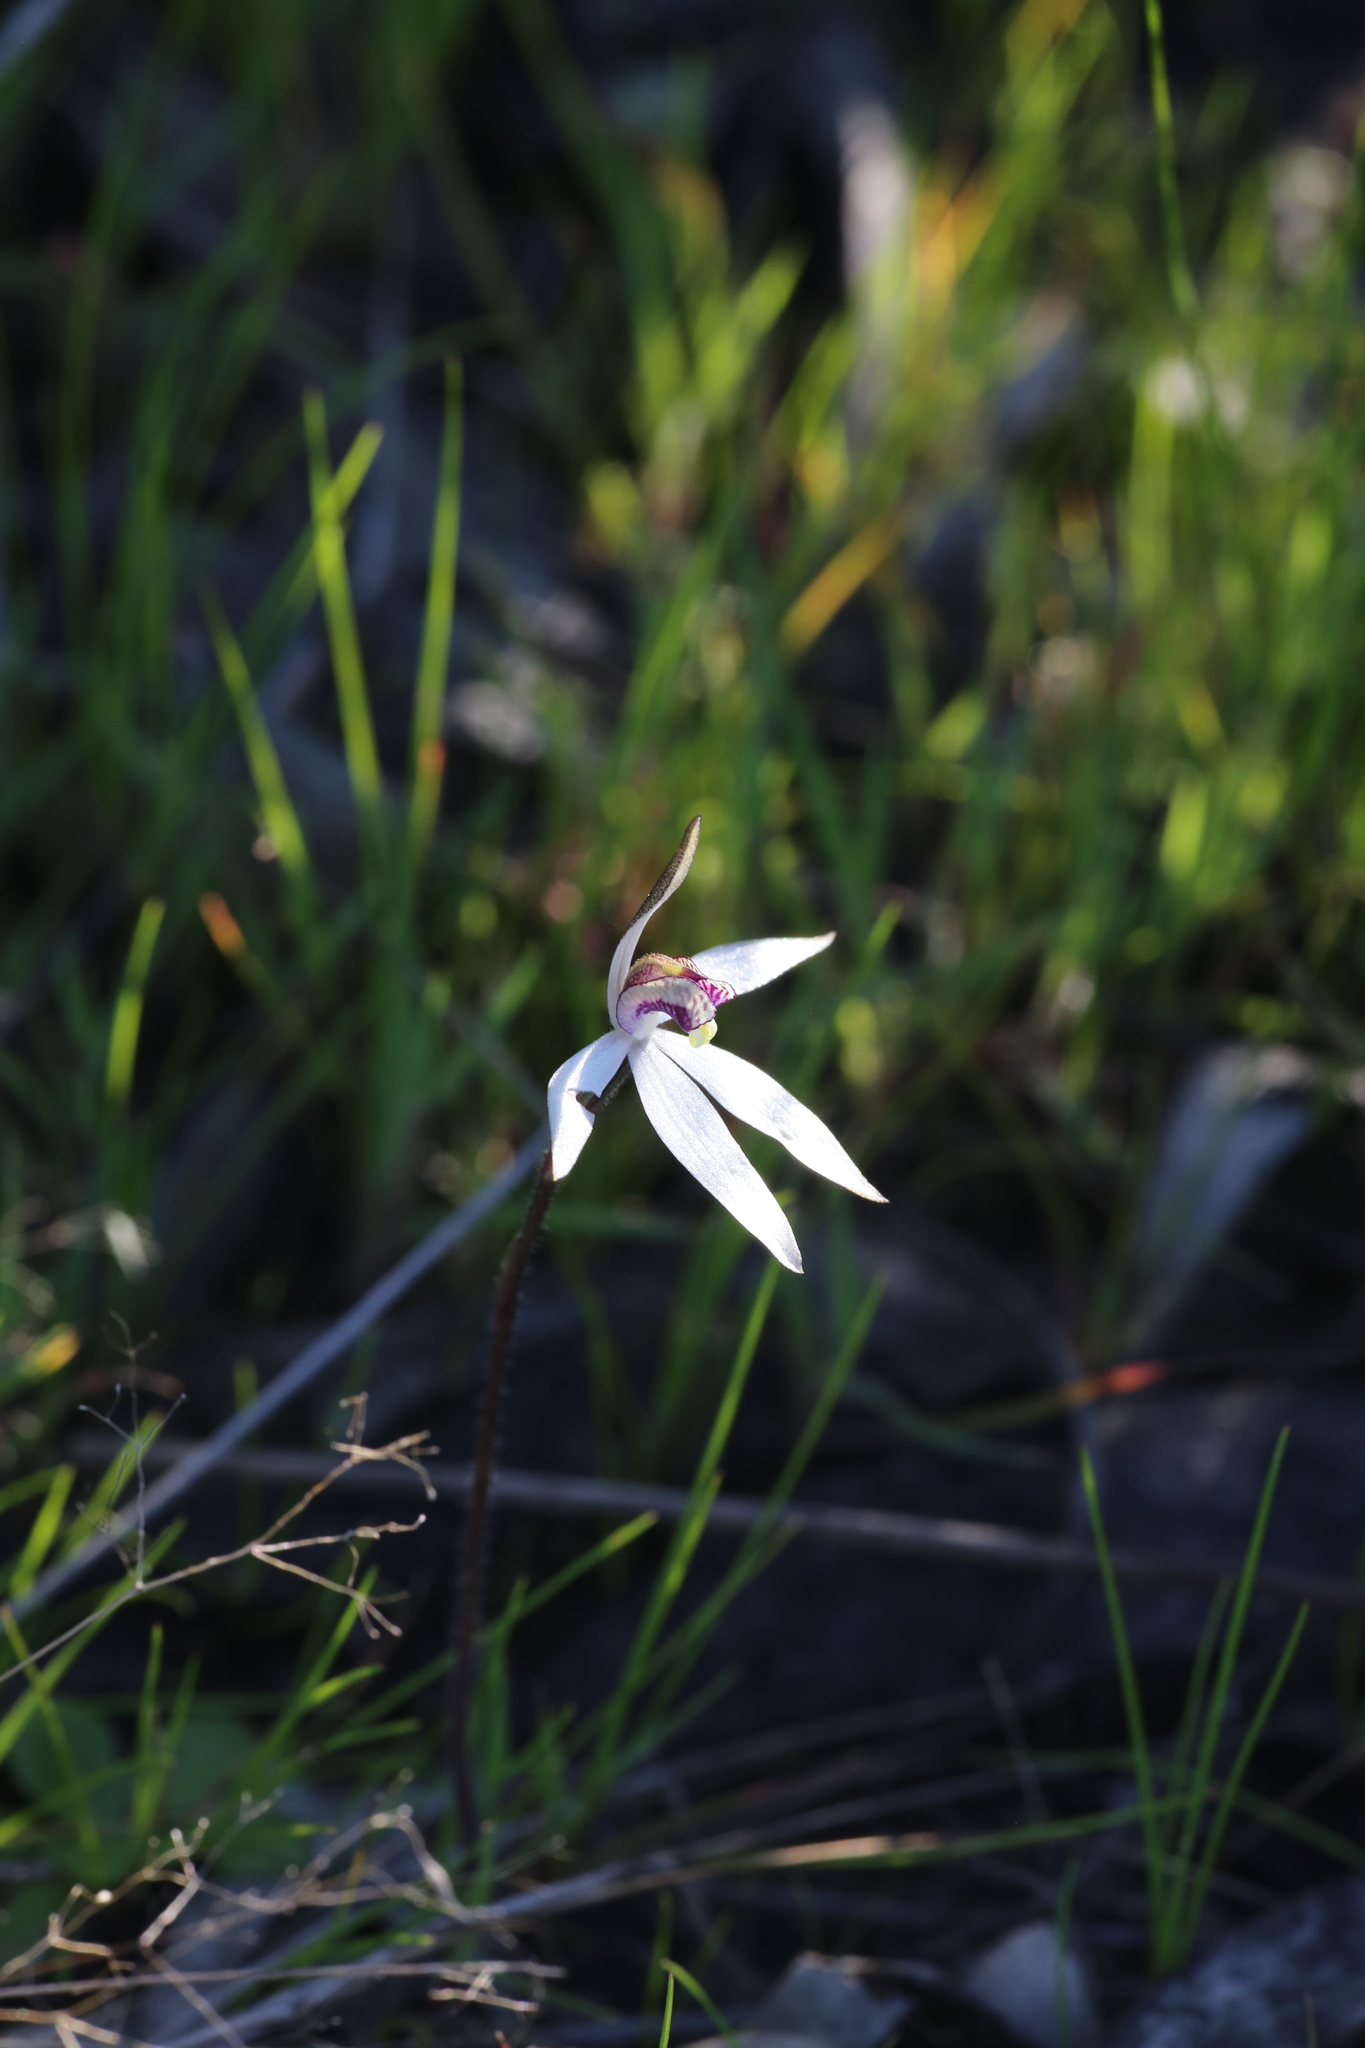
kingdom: Plantae
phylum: Tracheophyta
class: Liliopsida
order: Asparagales
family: Orchidaceae
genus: Caladenia
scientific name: Caladenia saccharata
